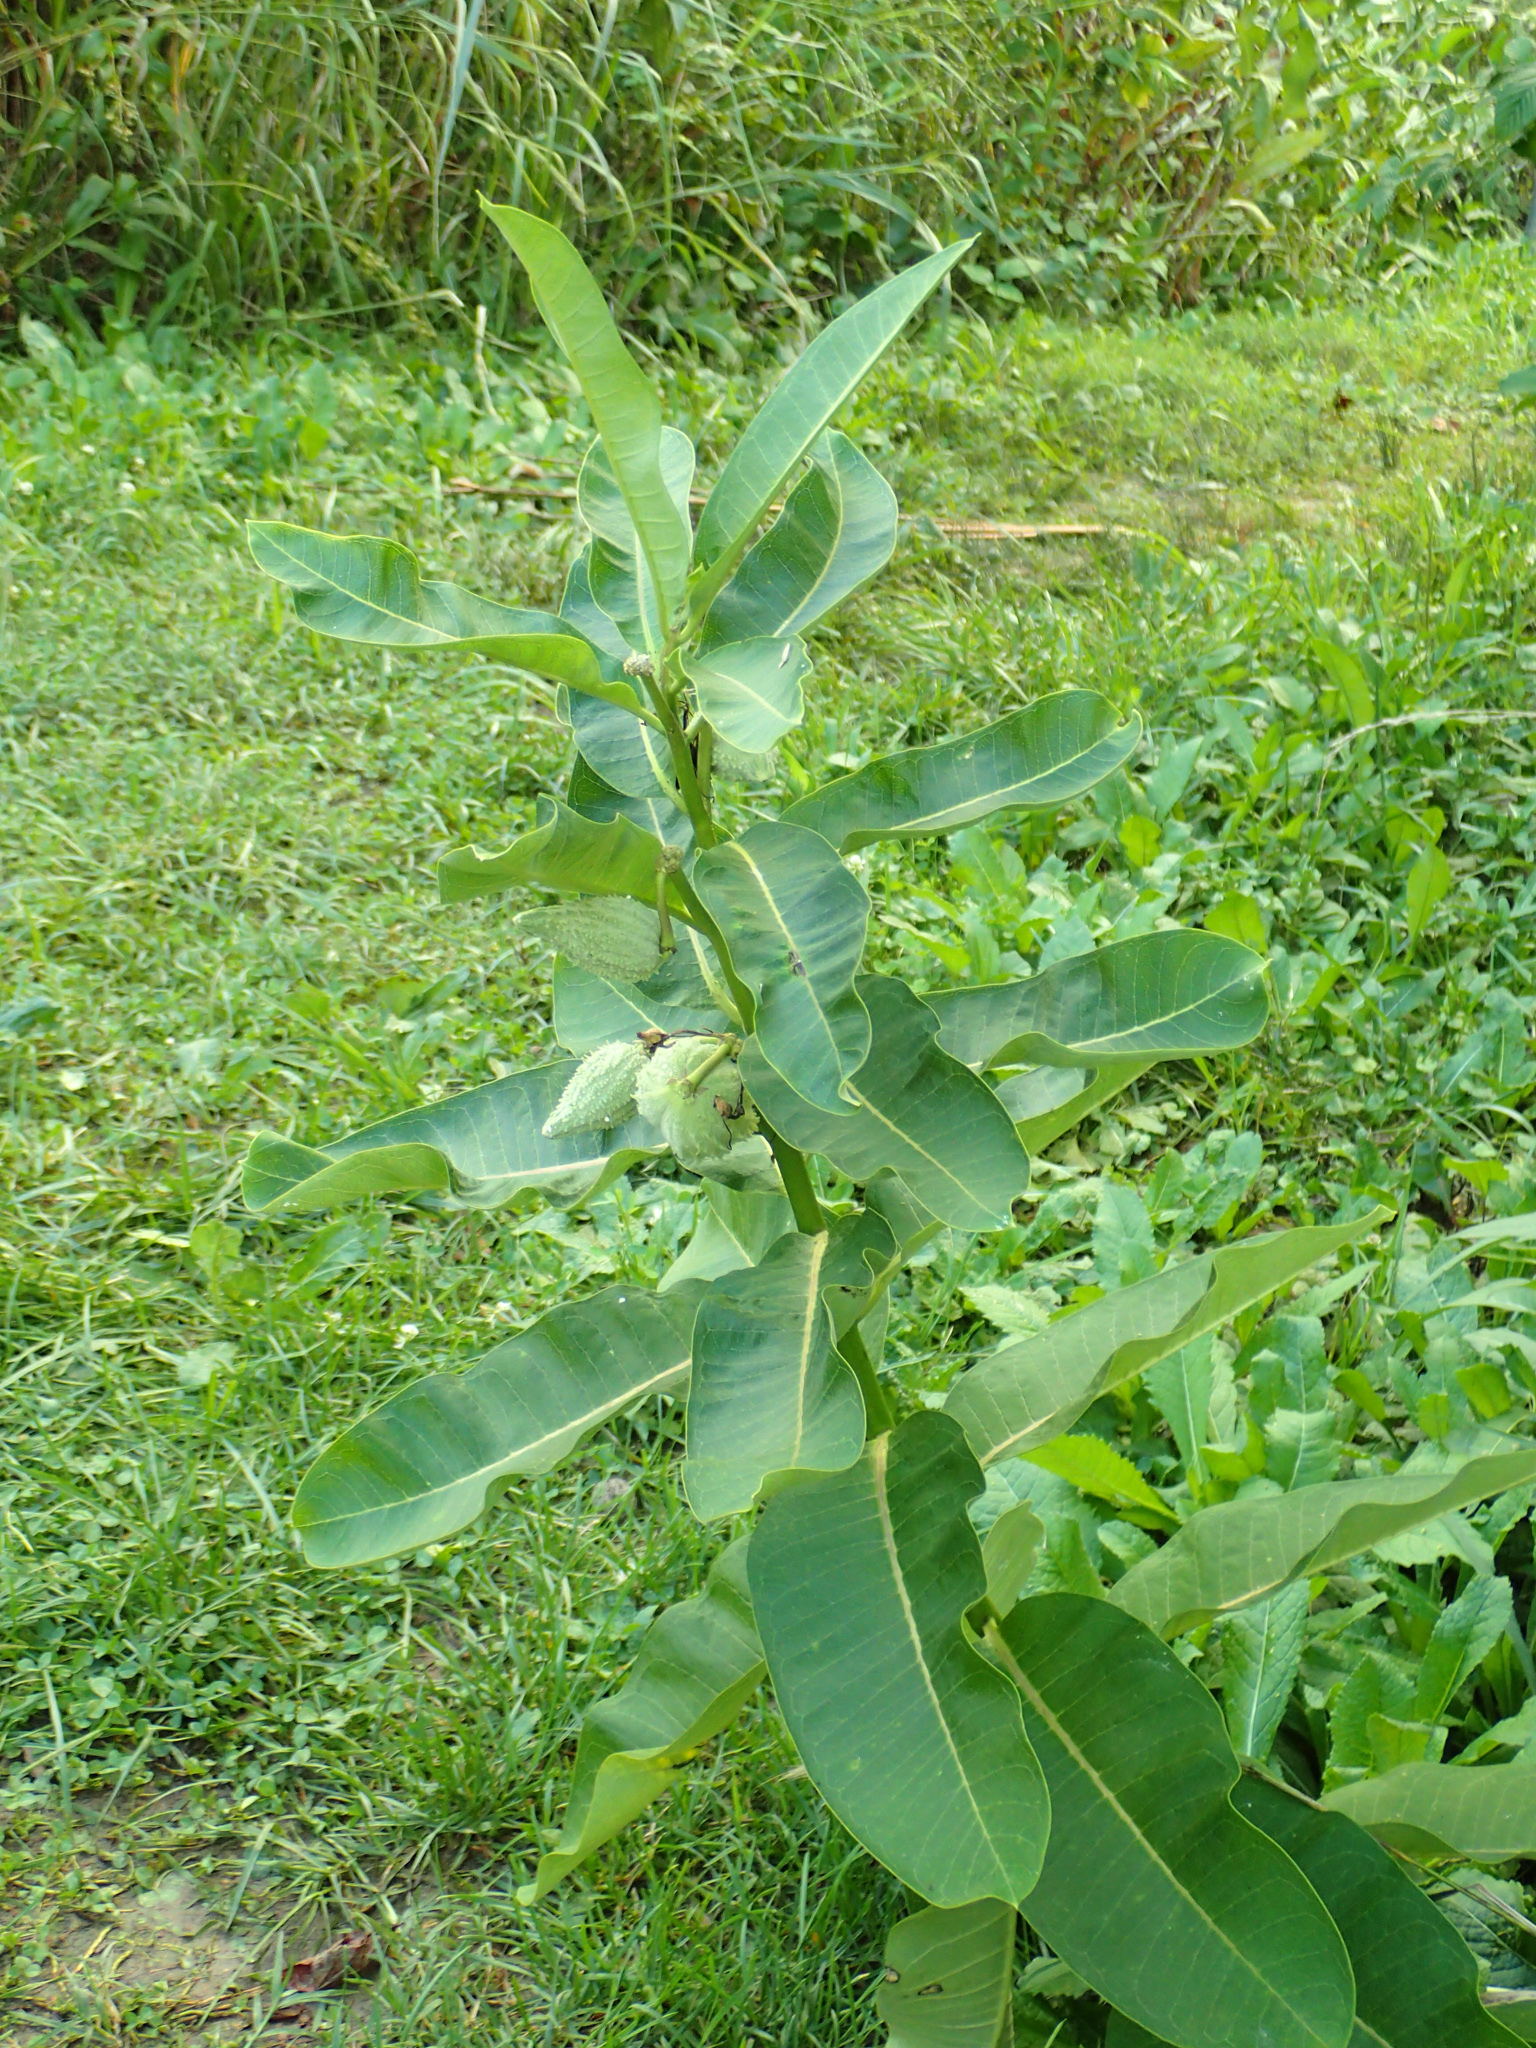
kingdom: Plantae
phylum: Tracheophyta
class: Magnoliopsida
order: Gentianales
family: Apocynaceae
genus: Asclepias
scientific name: Asclepias syriaca
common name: Common milkweed
